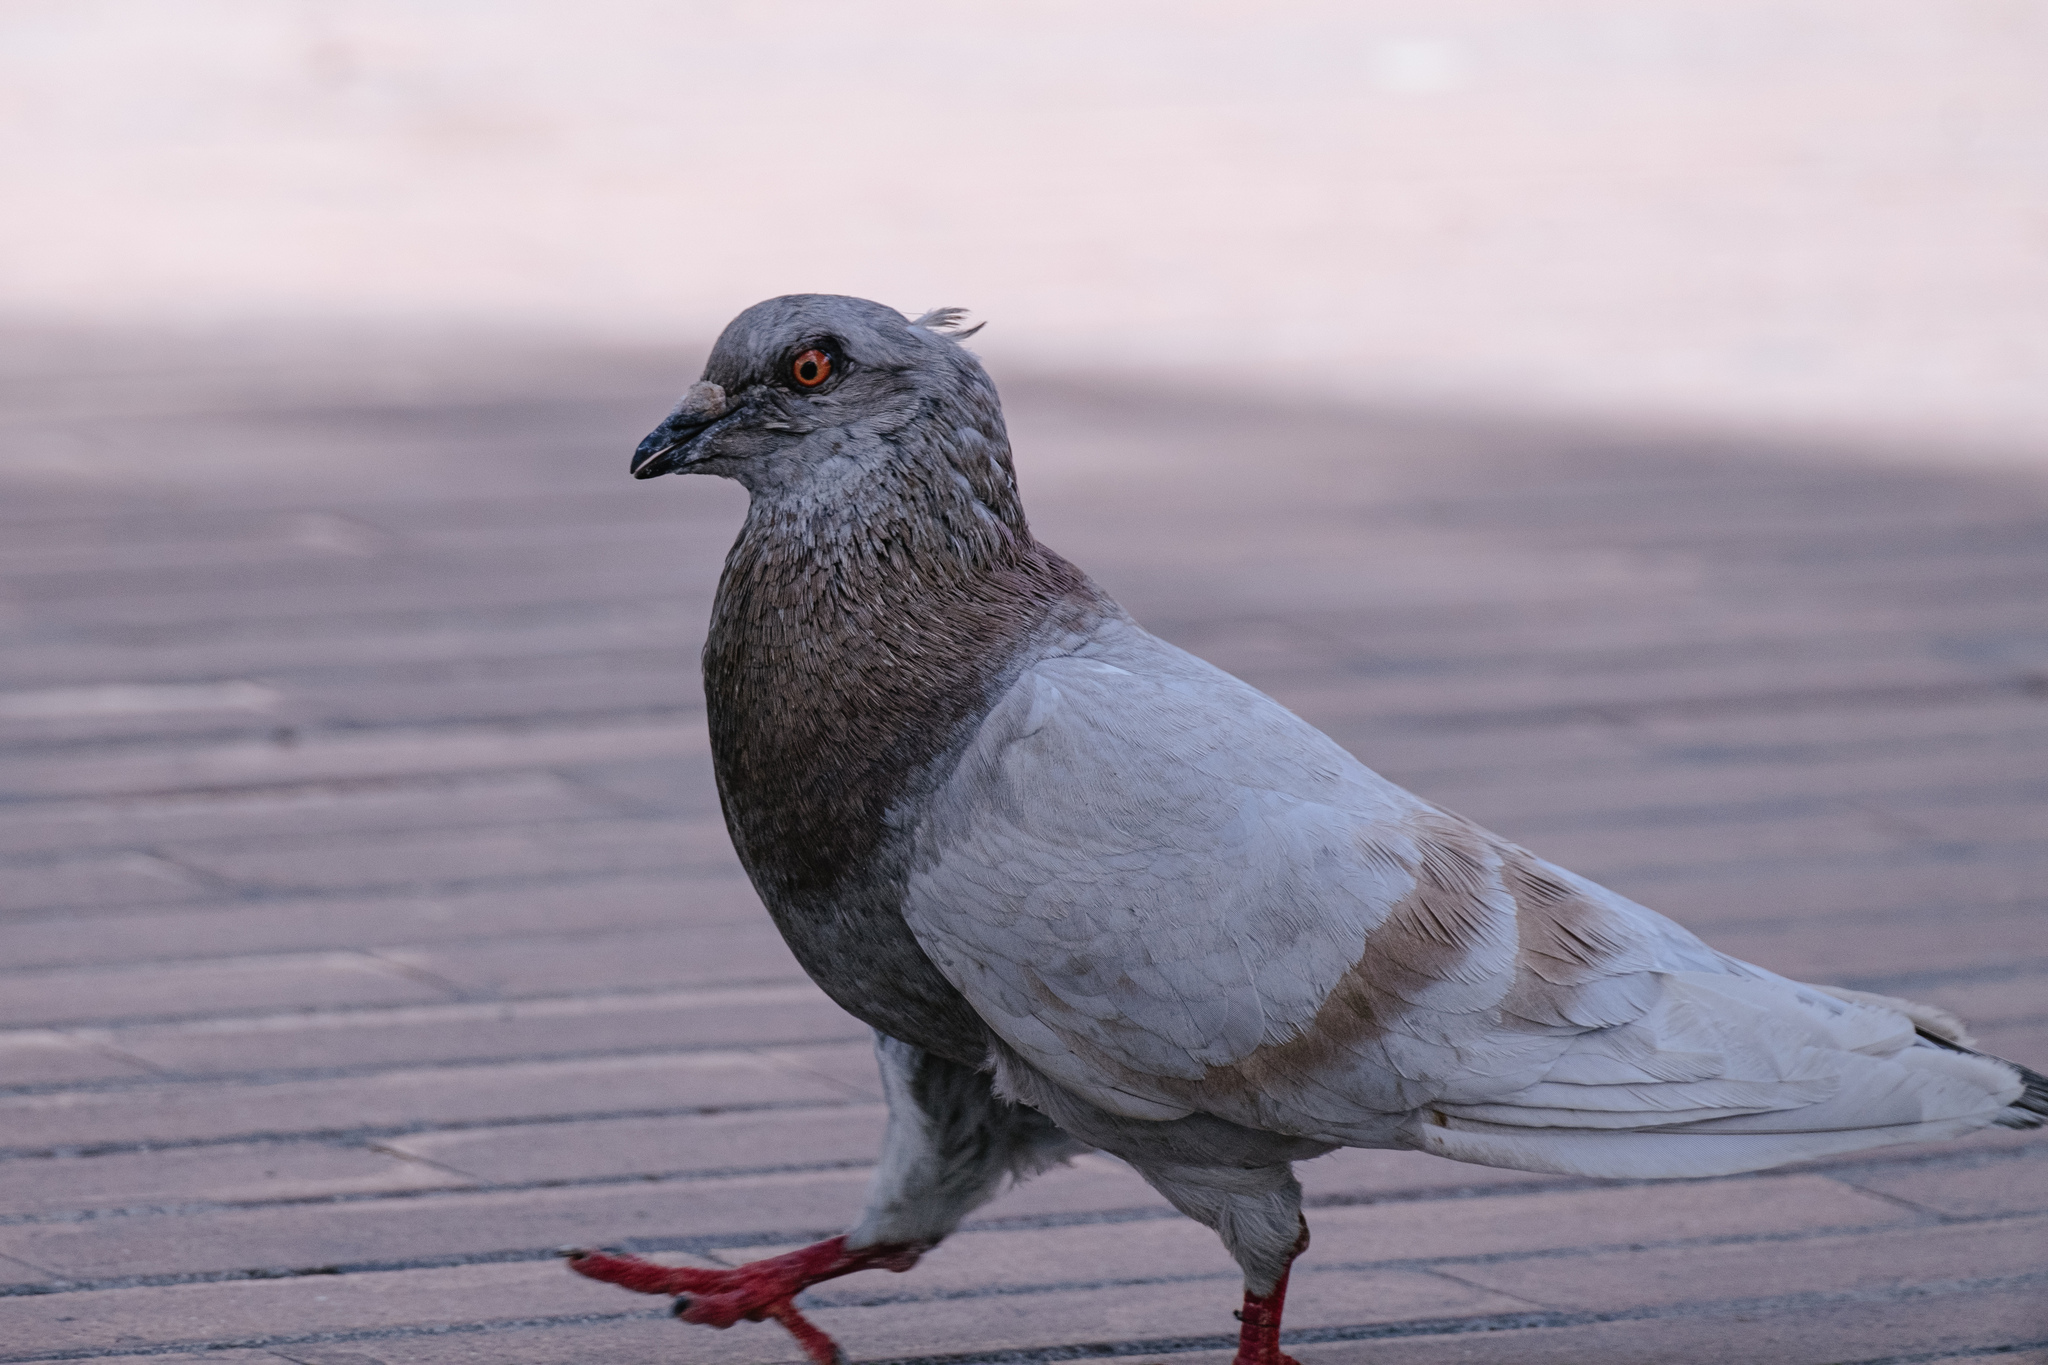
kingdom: Animalia
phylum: Chordata
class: Aves
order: Columbiformes
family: Columbidae
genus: Columba
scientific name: Columba livia
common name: Rock pigeon
